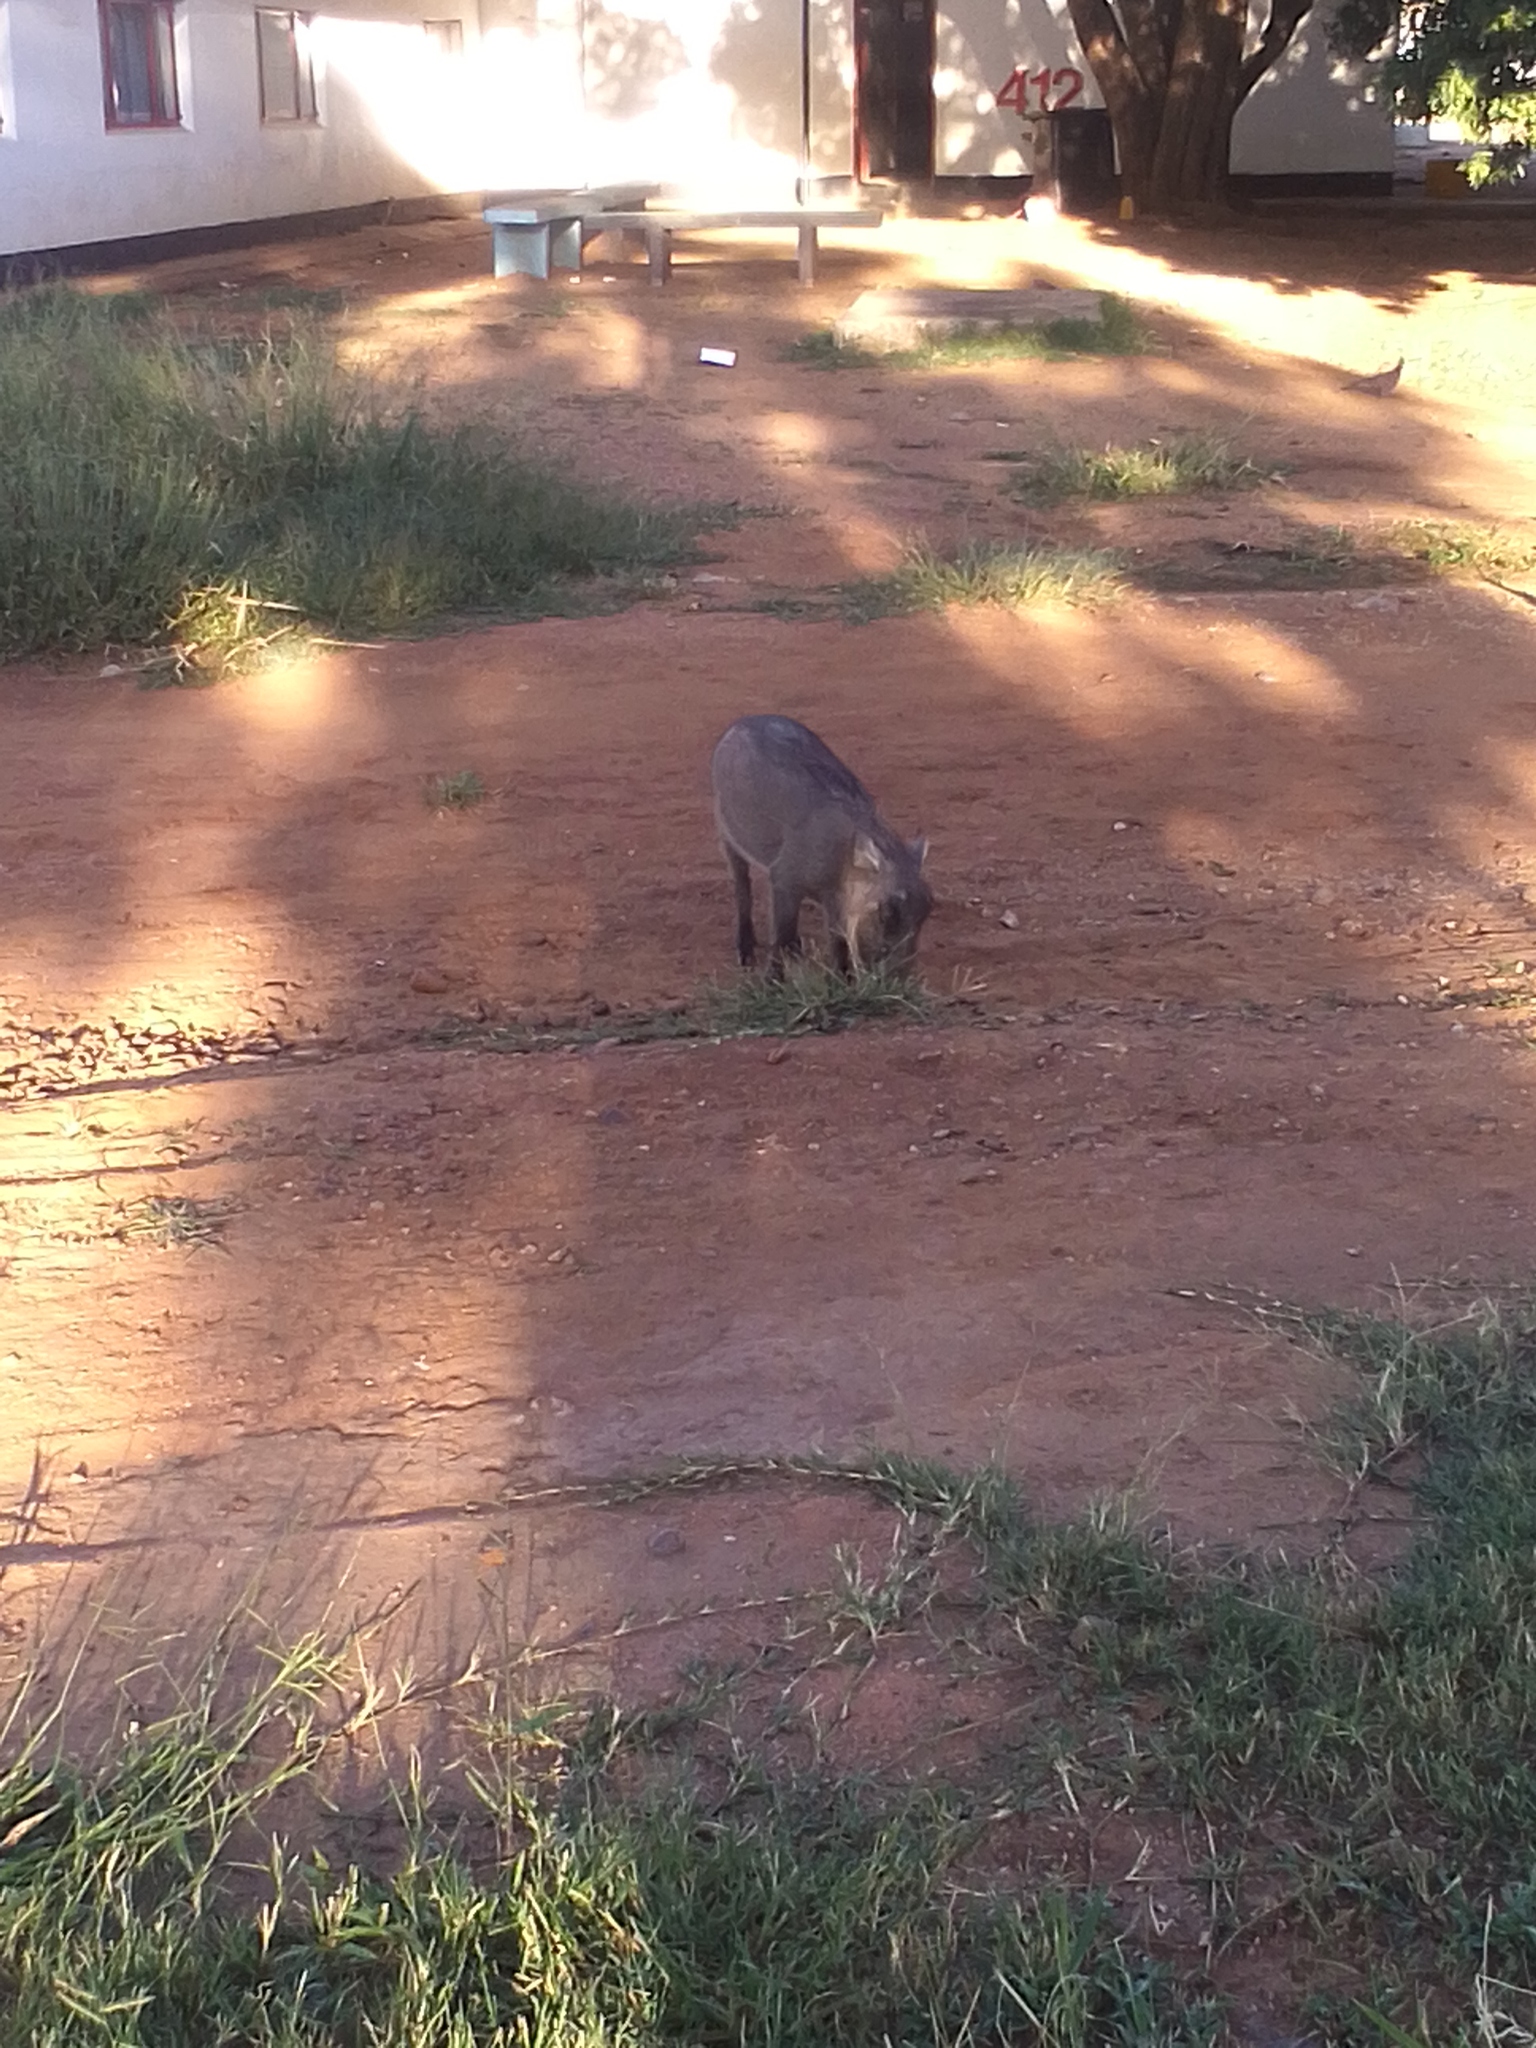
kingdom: Animalia
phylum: Chordata
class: Mammalia
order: Artiodactyla
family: Suidae
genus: Phacochoerus
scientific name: Phacochoerus africanus
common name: Common warthog
